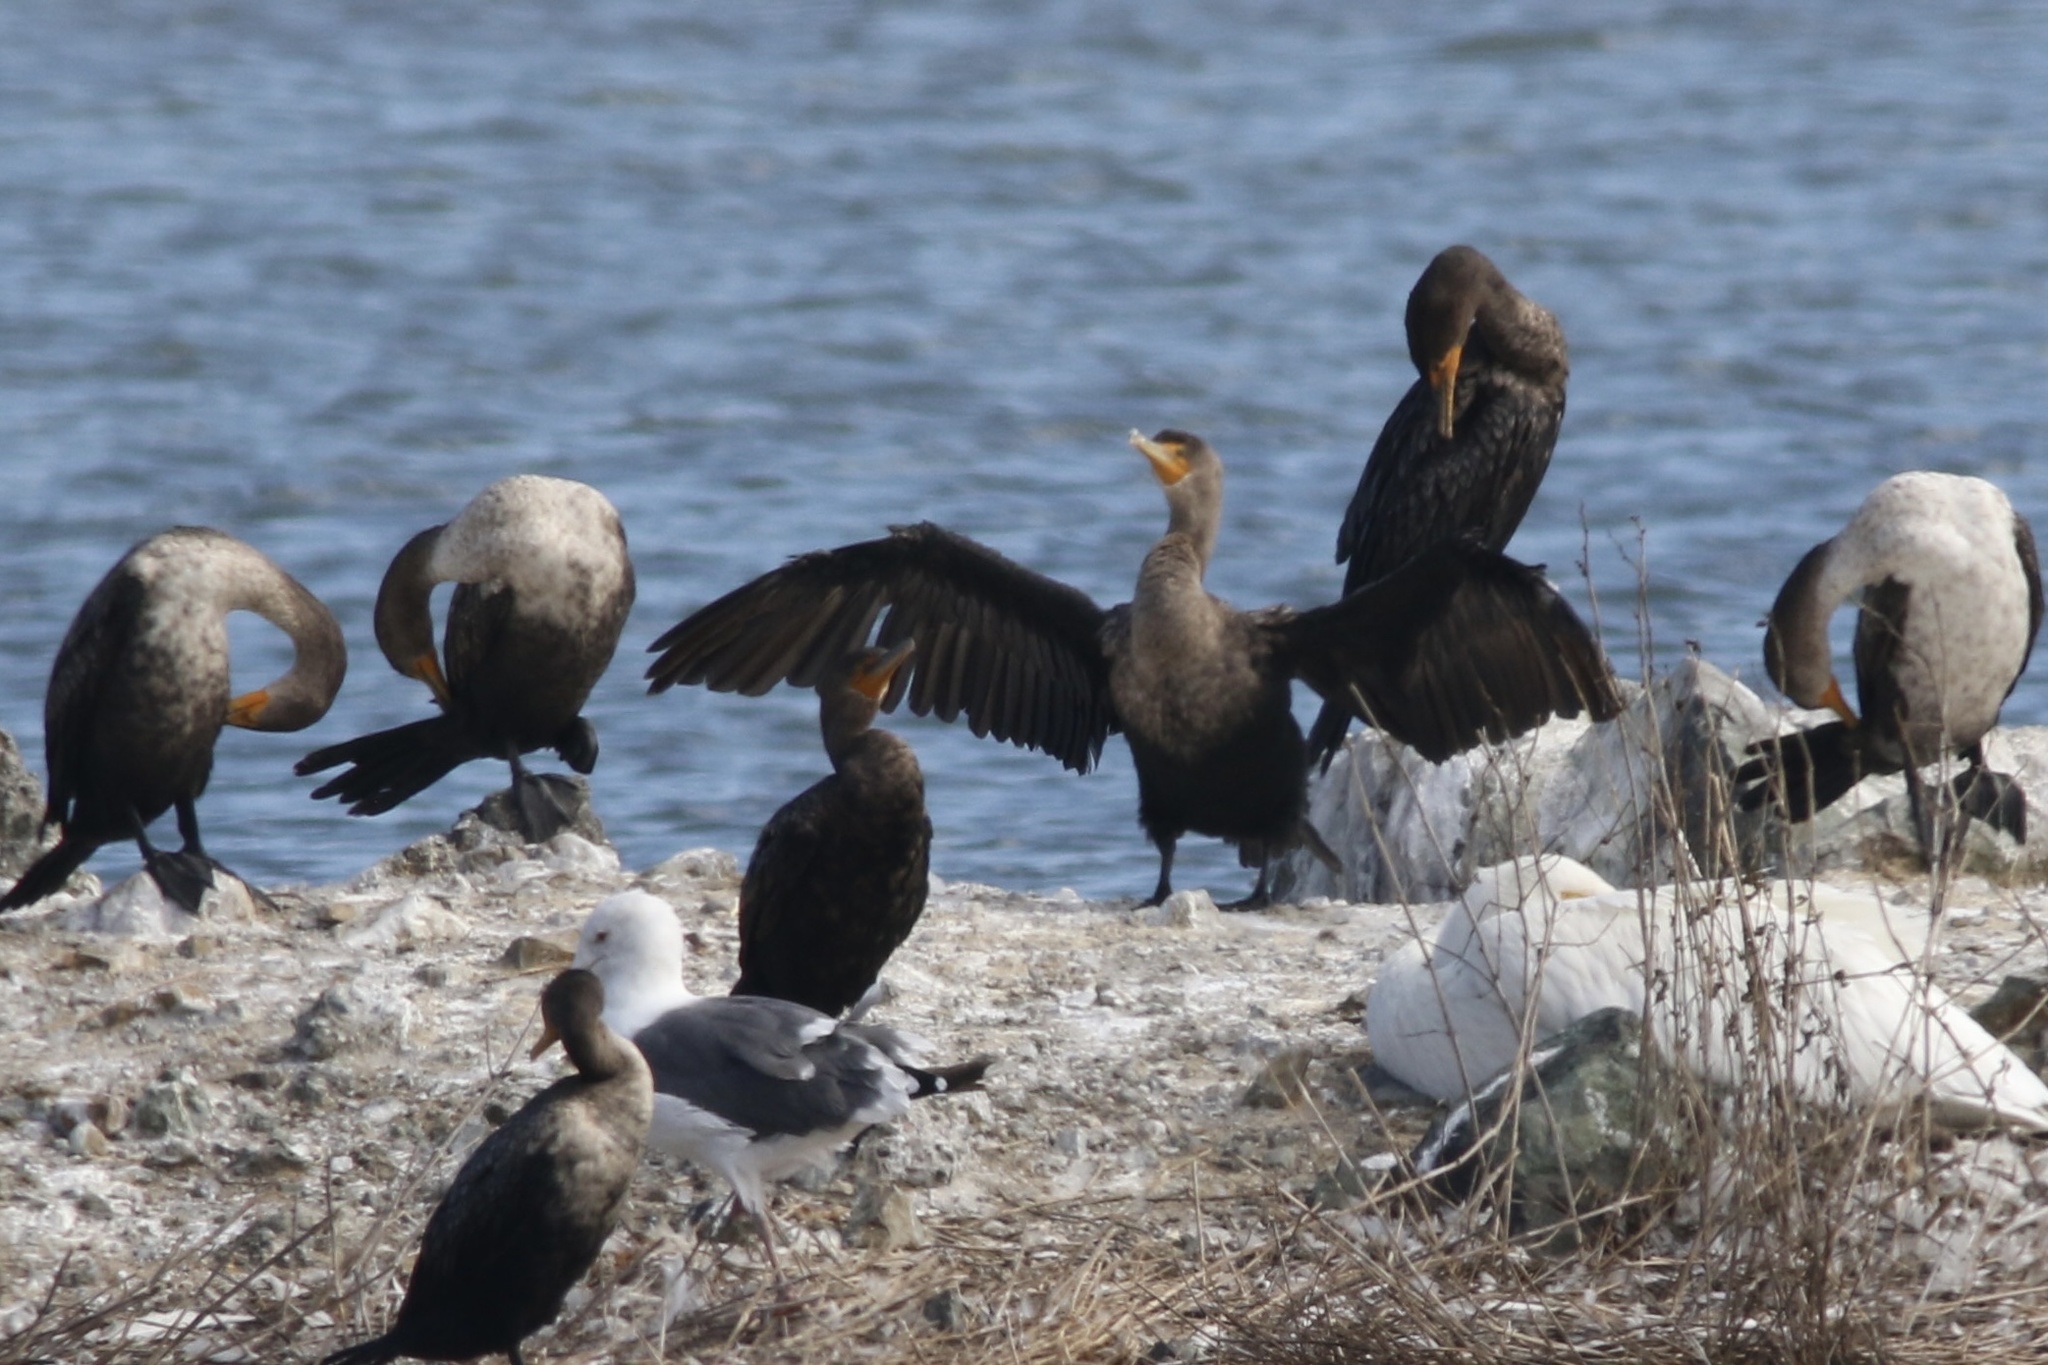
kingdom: Animalia
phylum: Chordata
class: Aves
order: Suliformes
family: Phalacrocoracidae
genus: Phalacrocorax
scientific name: Phalacrocorax auritus
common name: Double-crested cormorant
